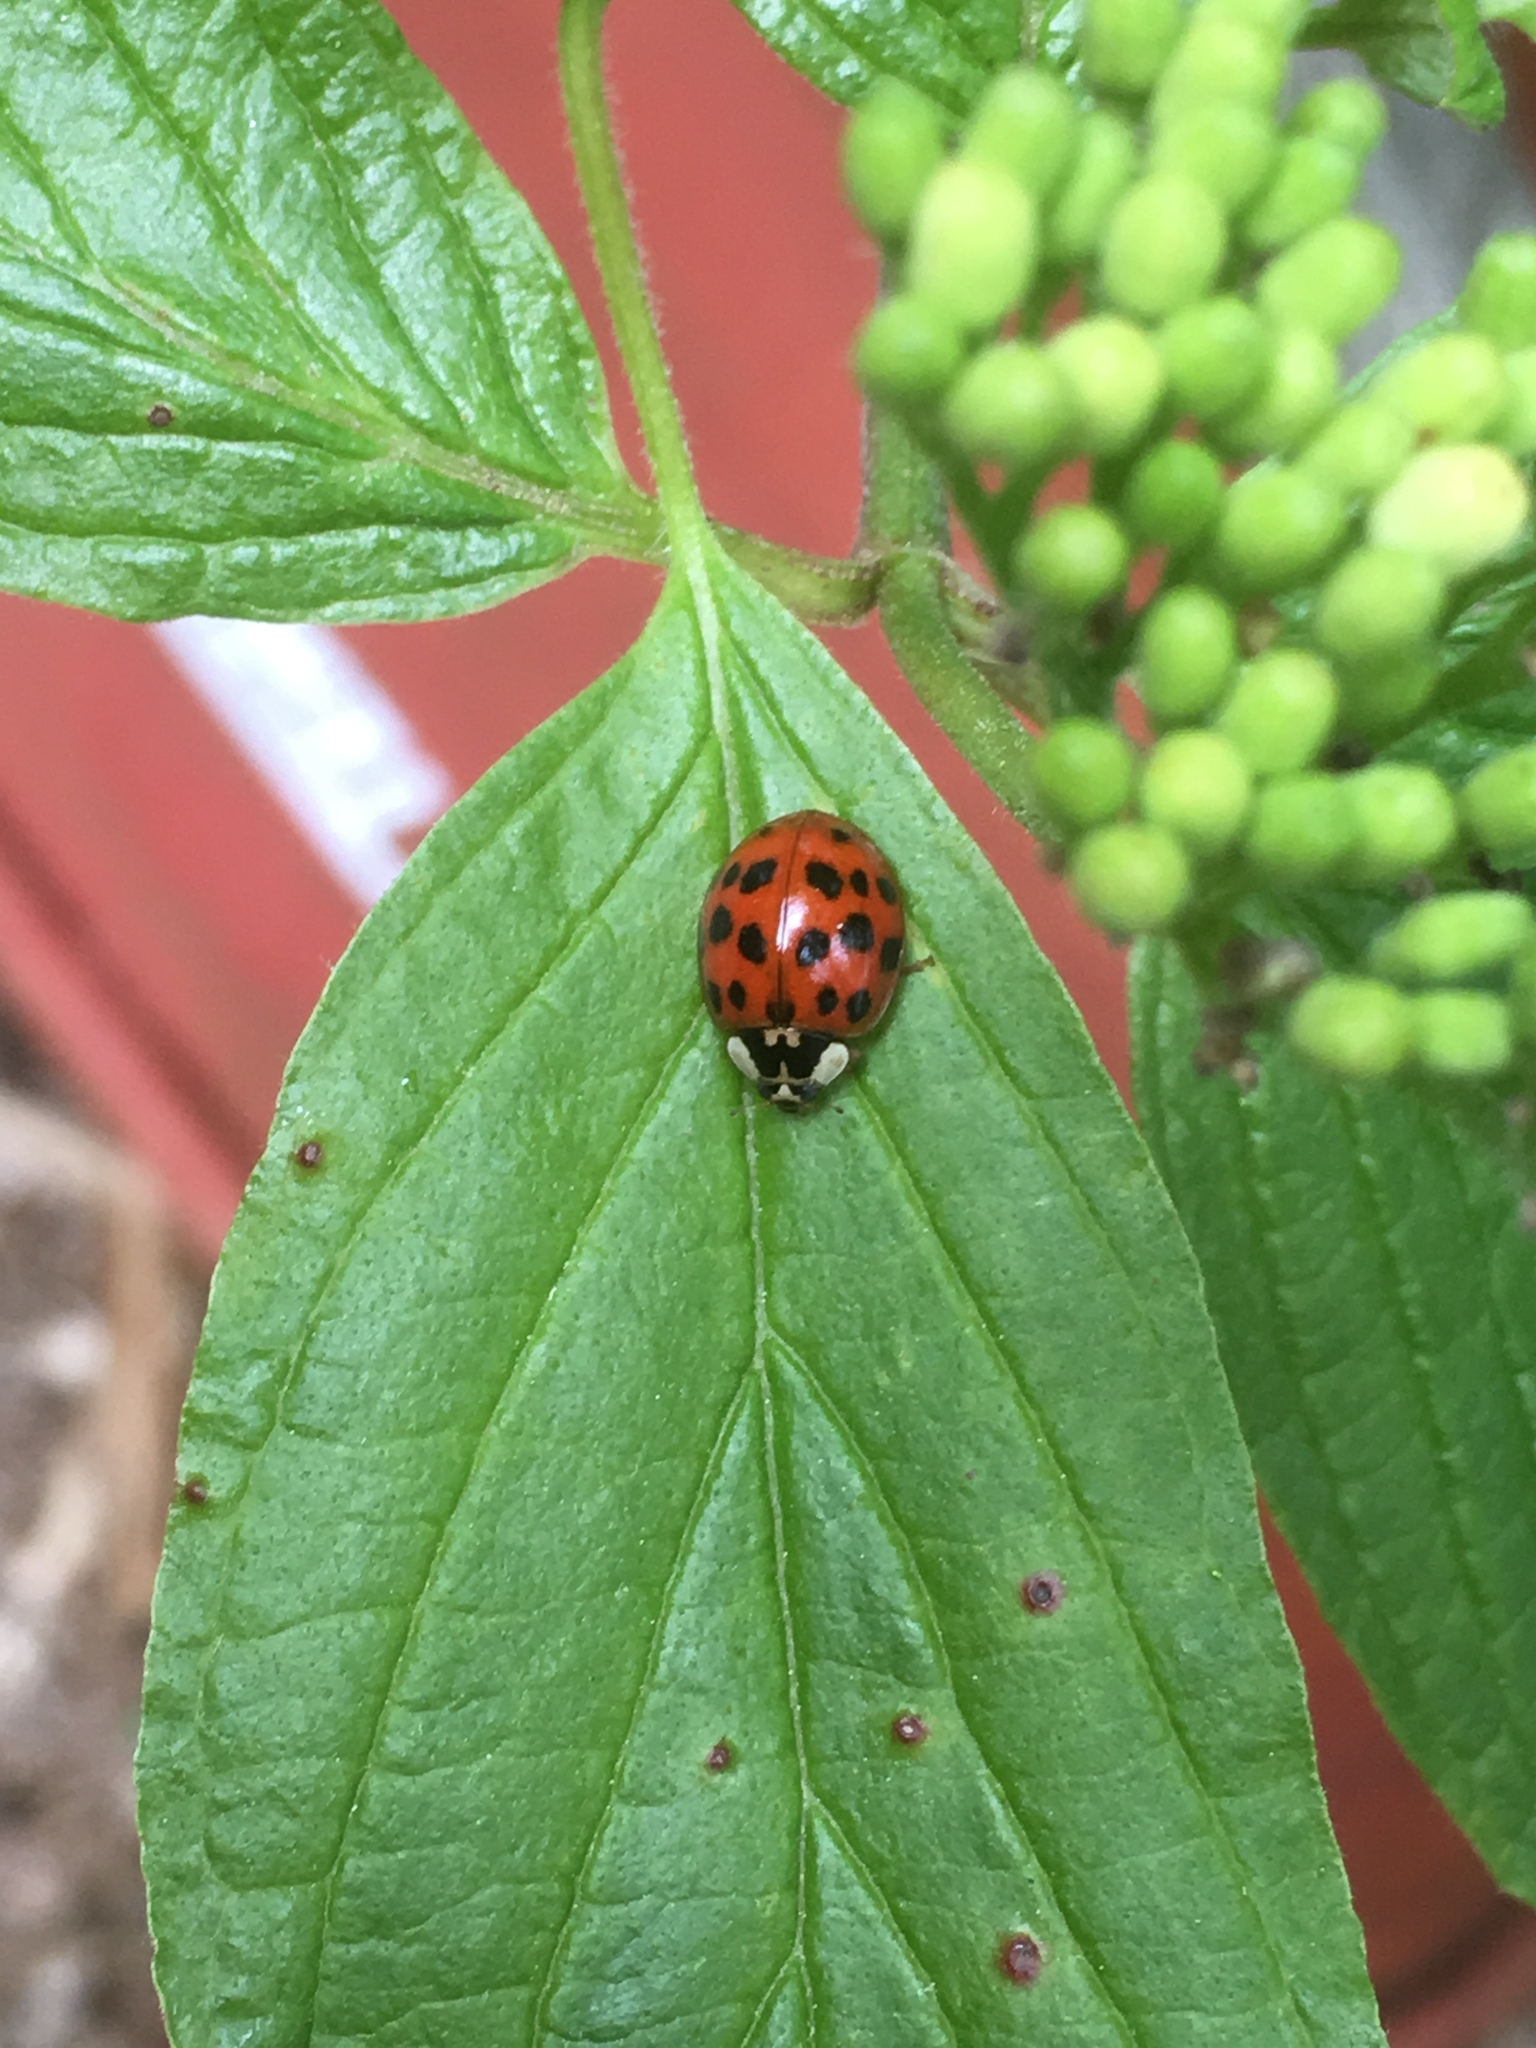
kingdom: Animalia
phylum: Arthropoda
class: Insecta
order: Coleoptera
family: Coccinellidae
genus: Harmonia
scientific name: Harmonia axyridis
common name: Harlequin ladybird
